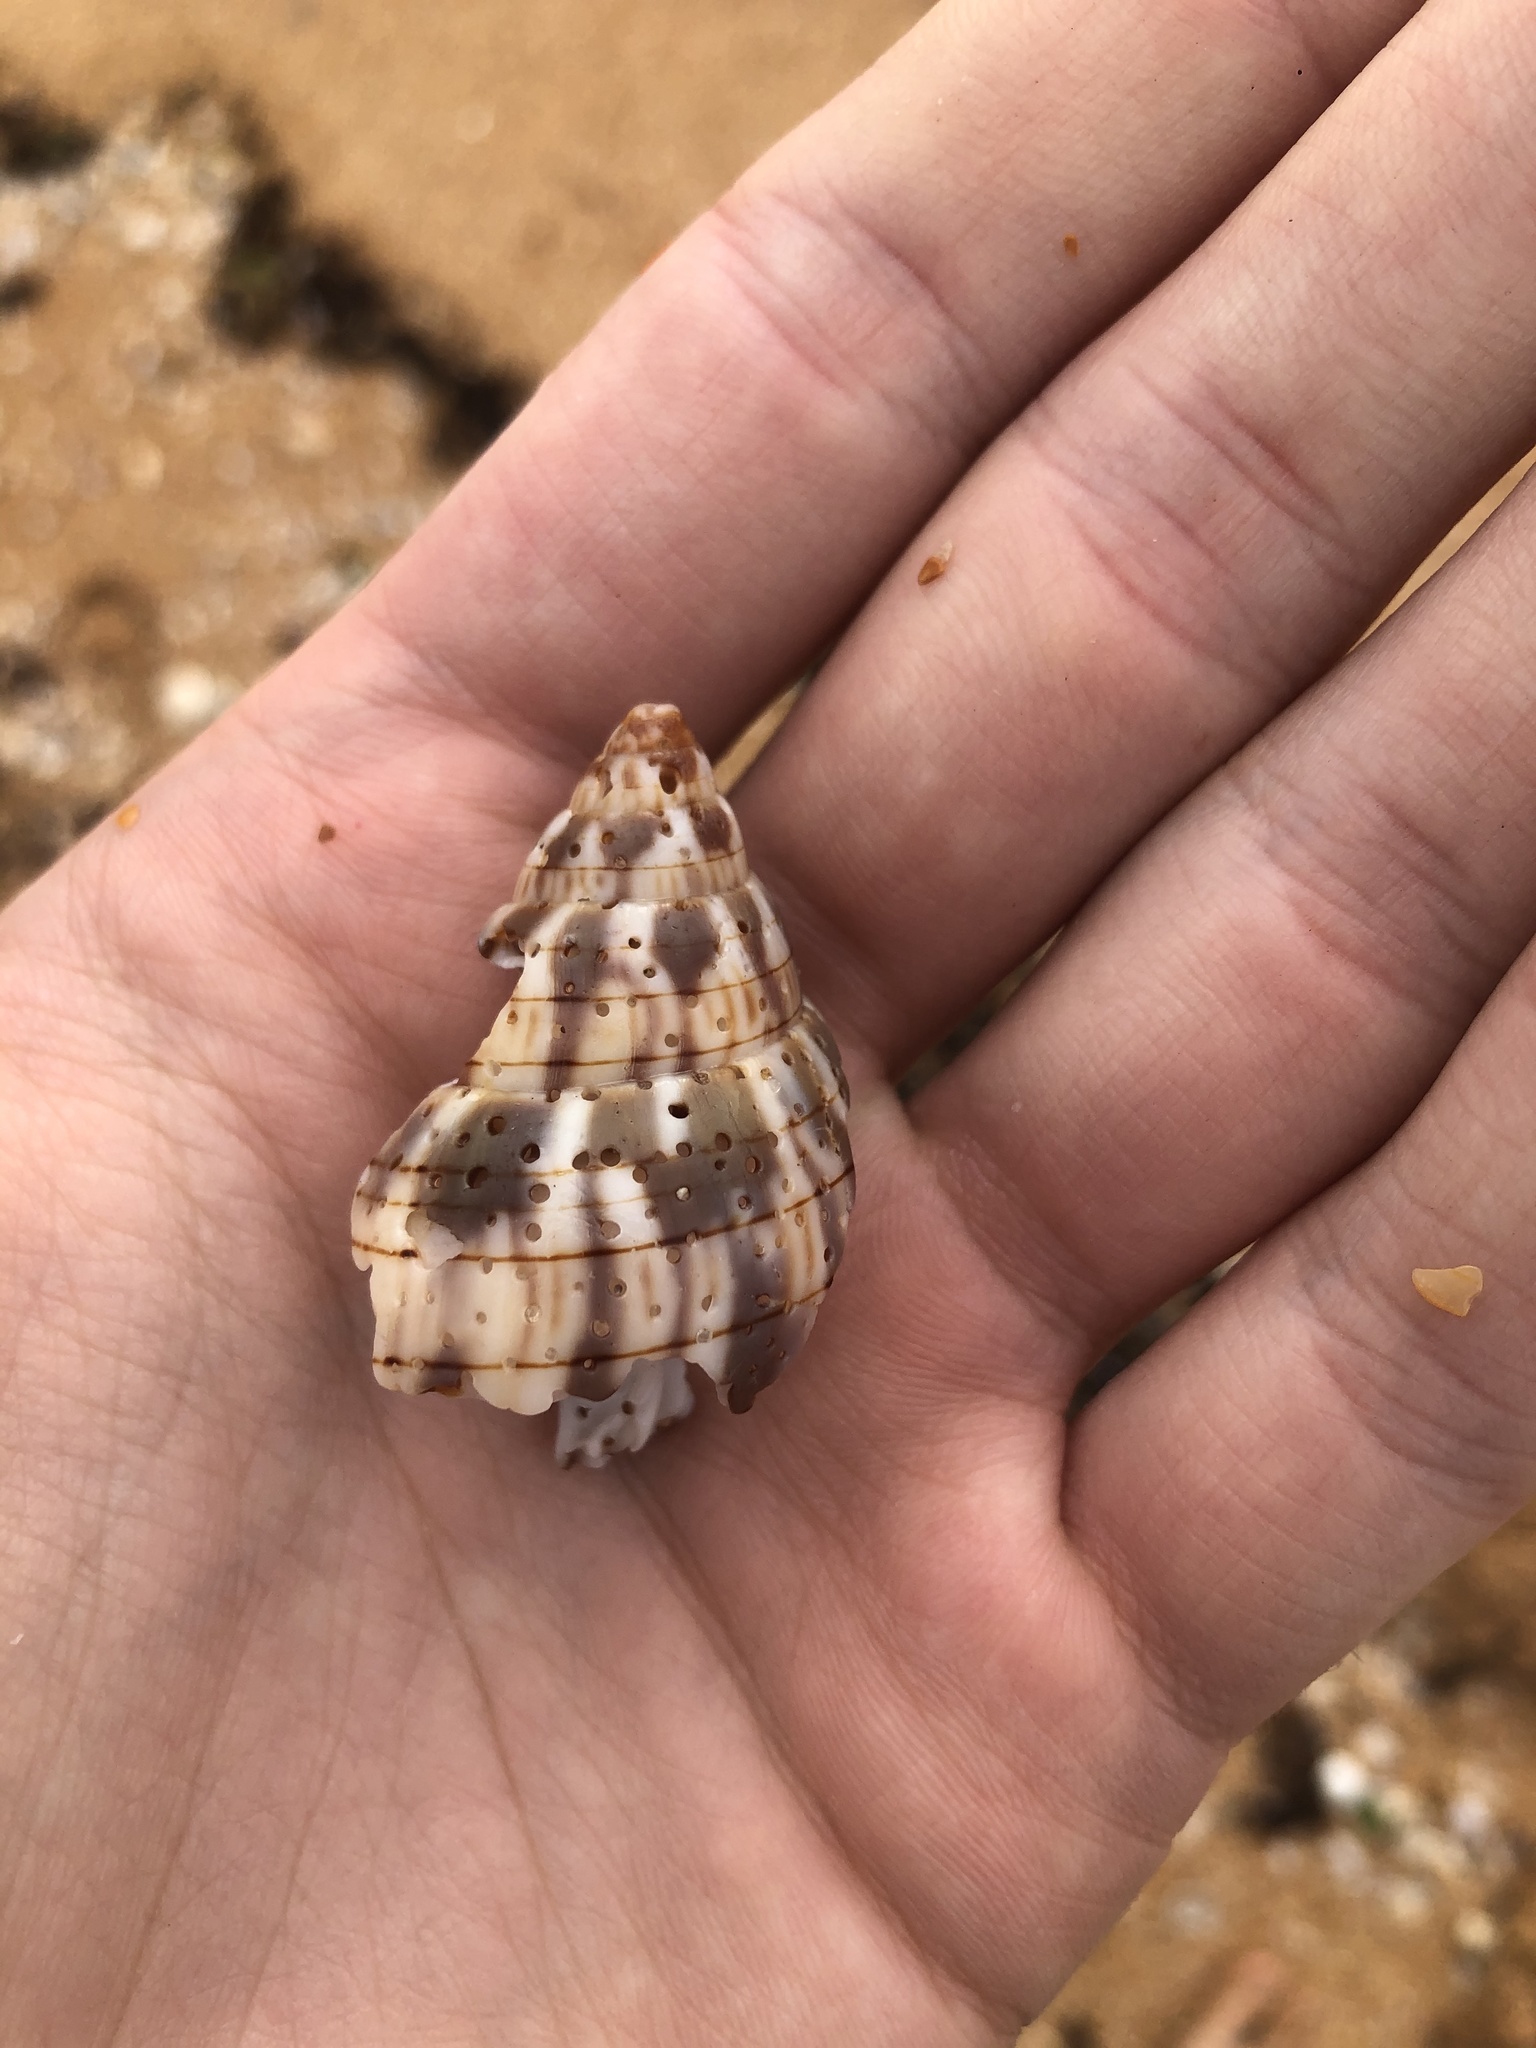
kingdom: Animalia
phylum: Mollusca
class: Gastropoda
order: Neogastropoda
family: Fasciolariidae
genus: Cinctura
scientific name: Cinctura hunteria
